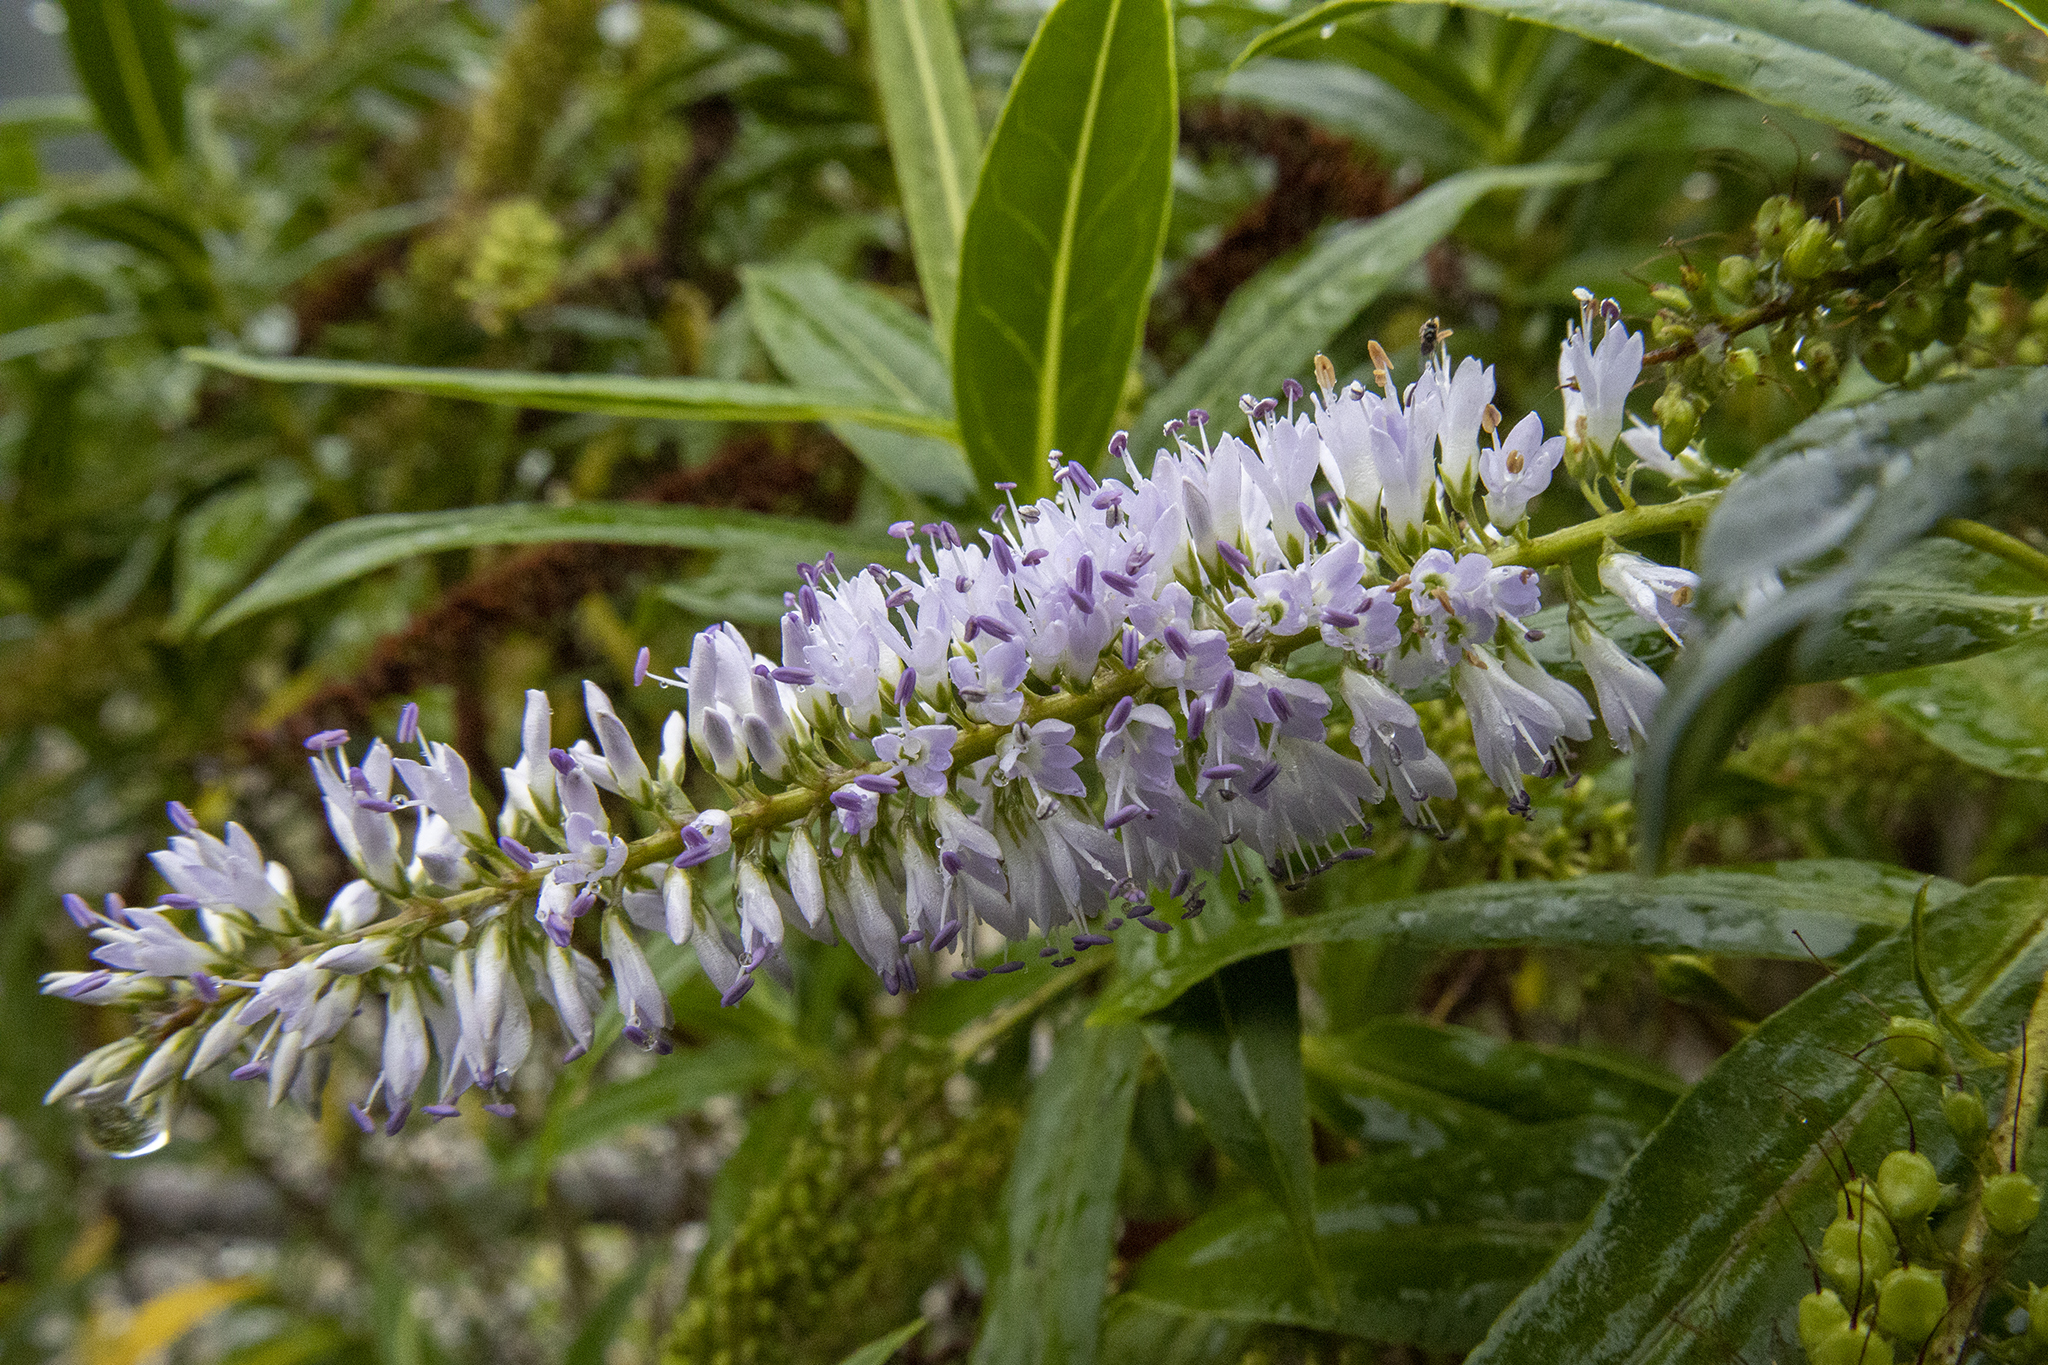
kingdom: Plantae
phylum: Tracheophyta
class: Magnoliopsida
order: Lamiales
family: Plantaginaceae
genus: Veronica
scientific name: Veronica salicifolia
